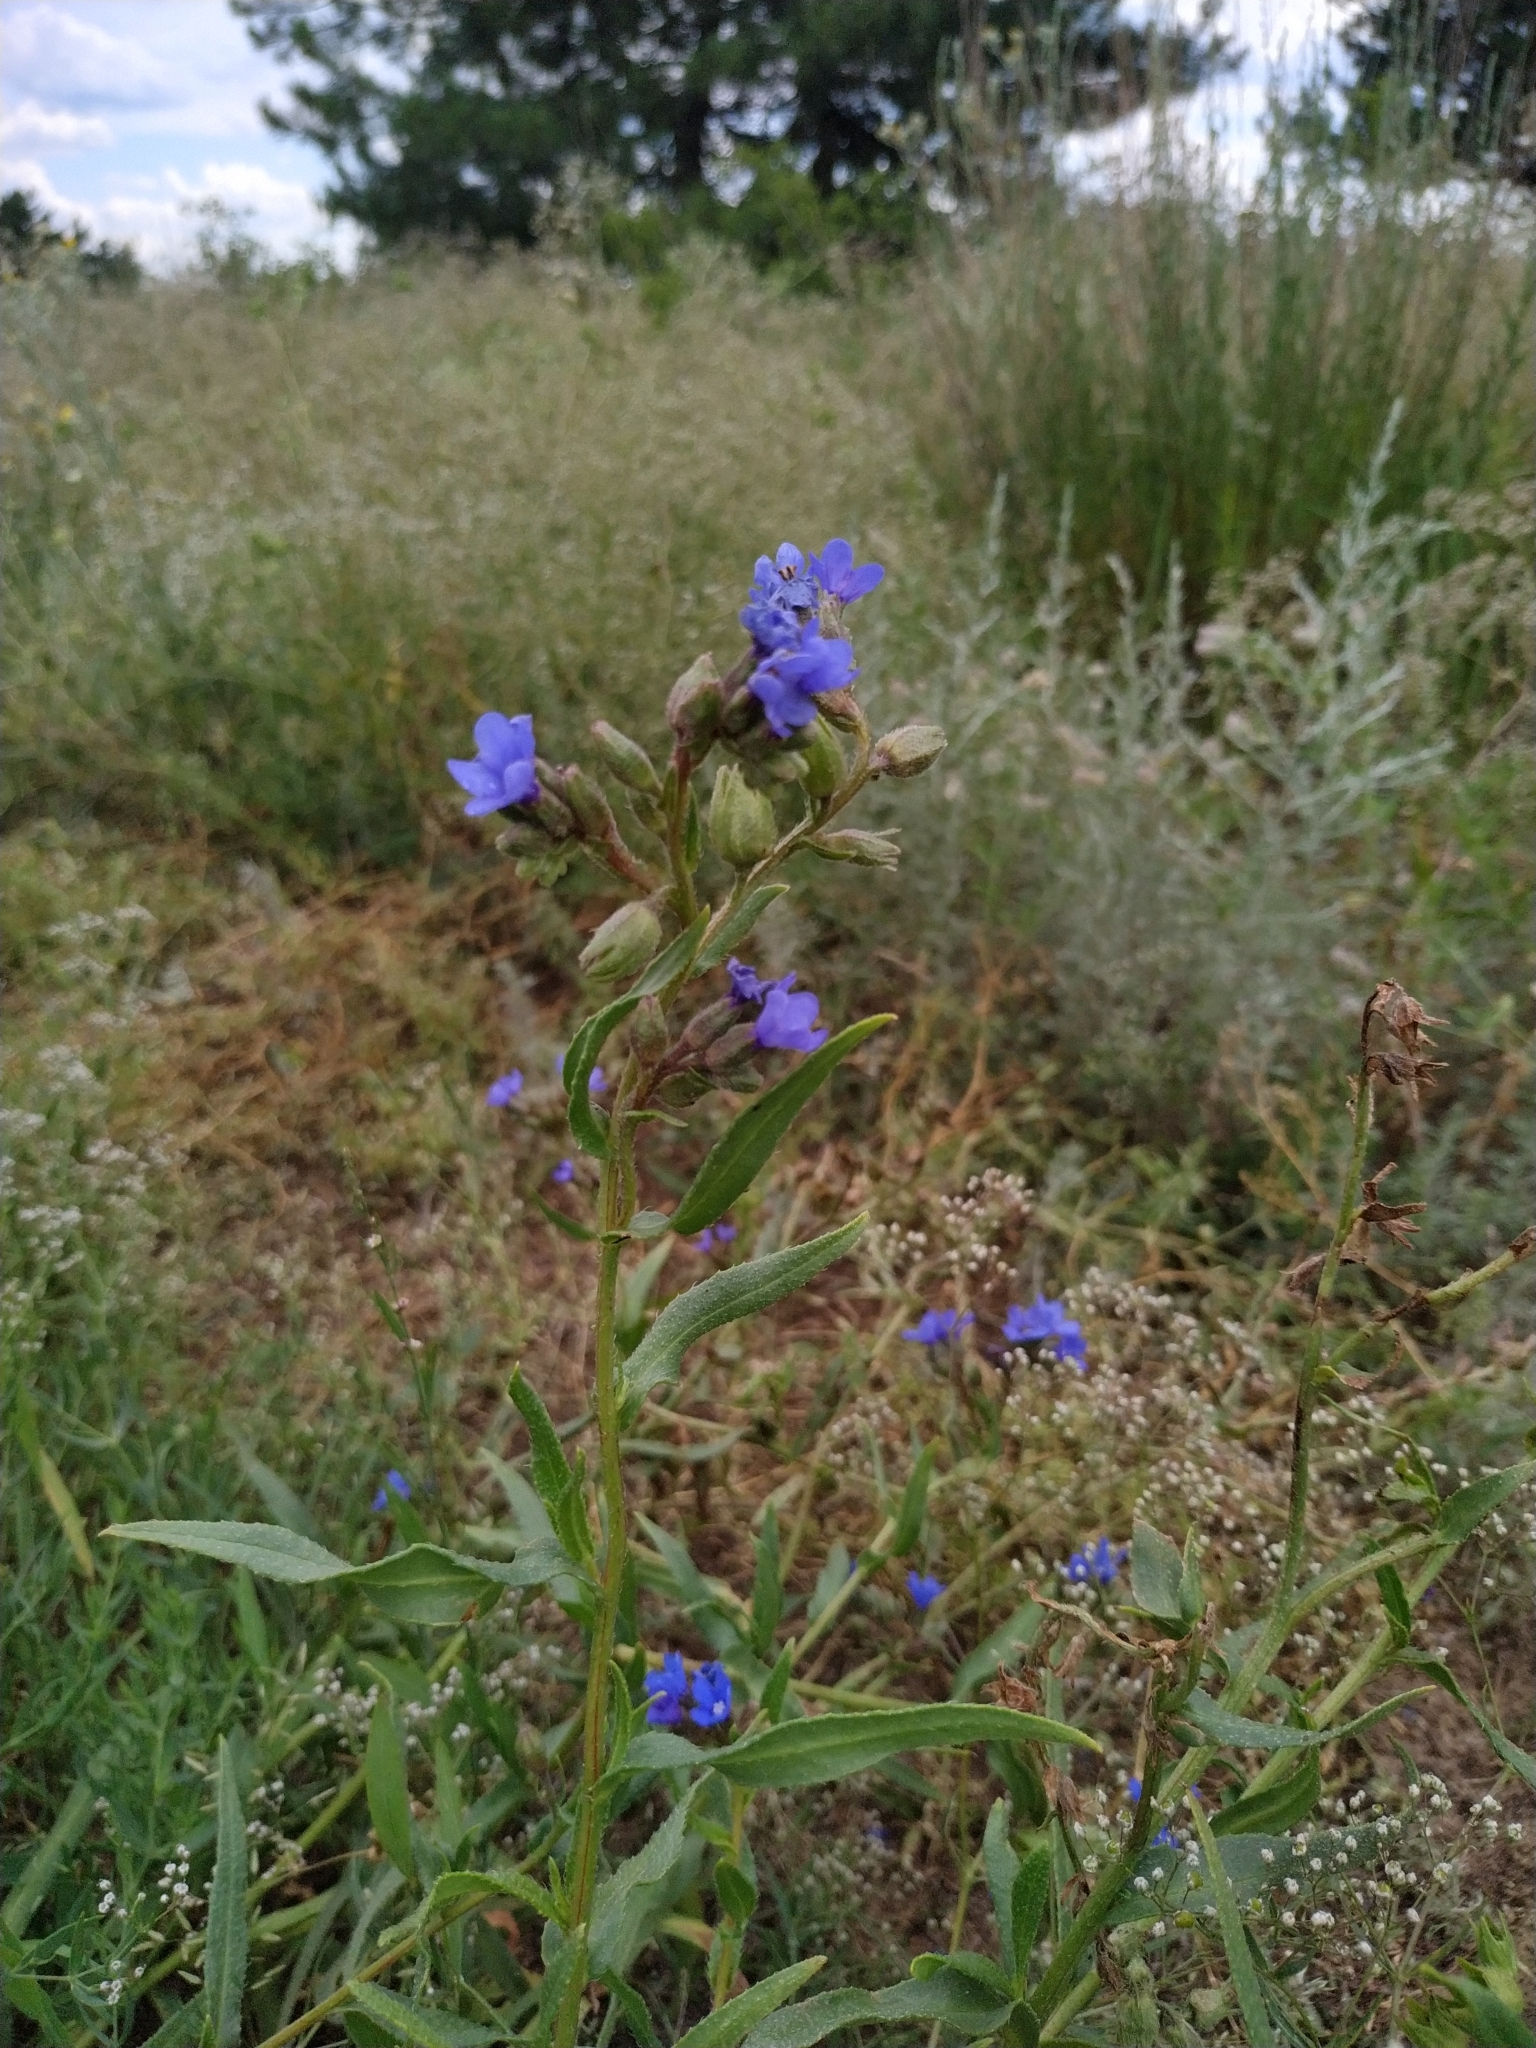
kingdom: Plantae
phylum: Tracheophyta
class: Magnoliopsida
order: Boraginales
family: Boraginaceae
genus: Anchusa
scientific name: Anchusa gmelinii
